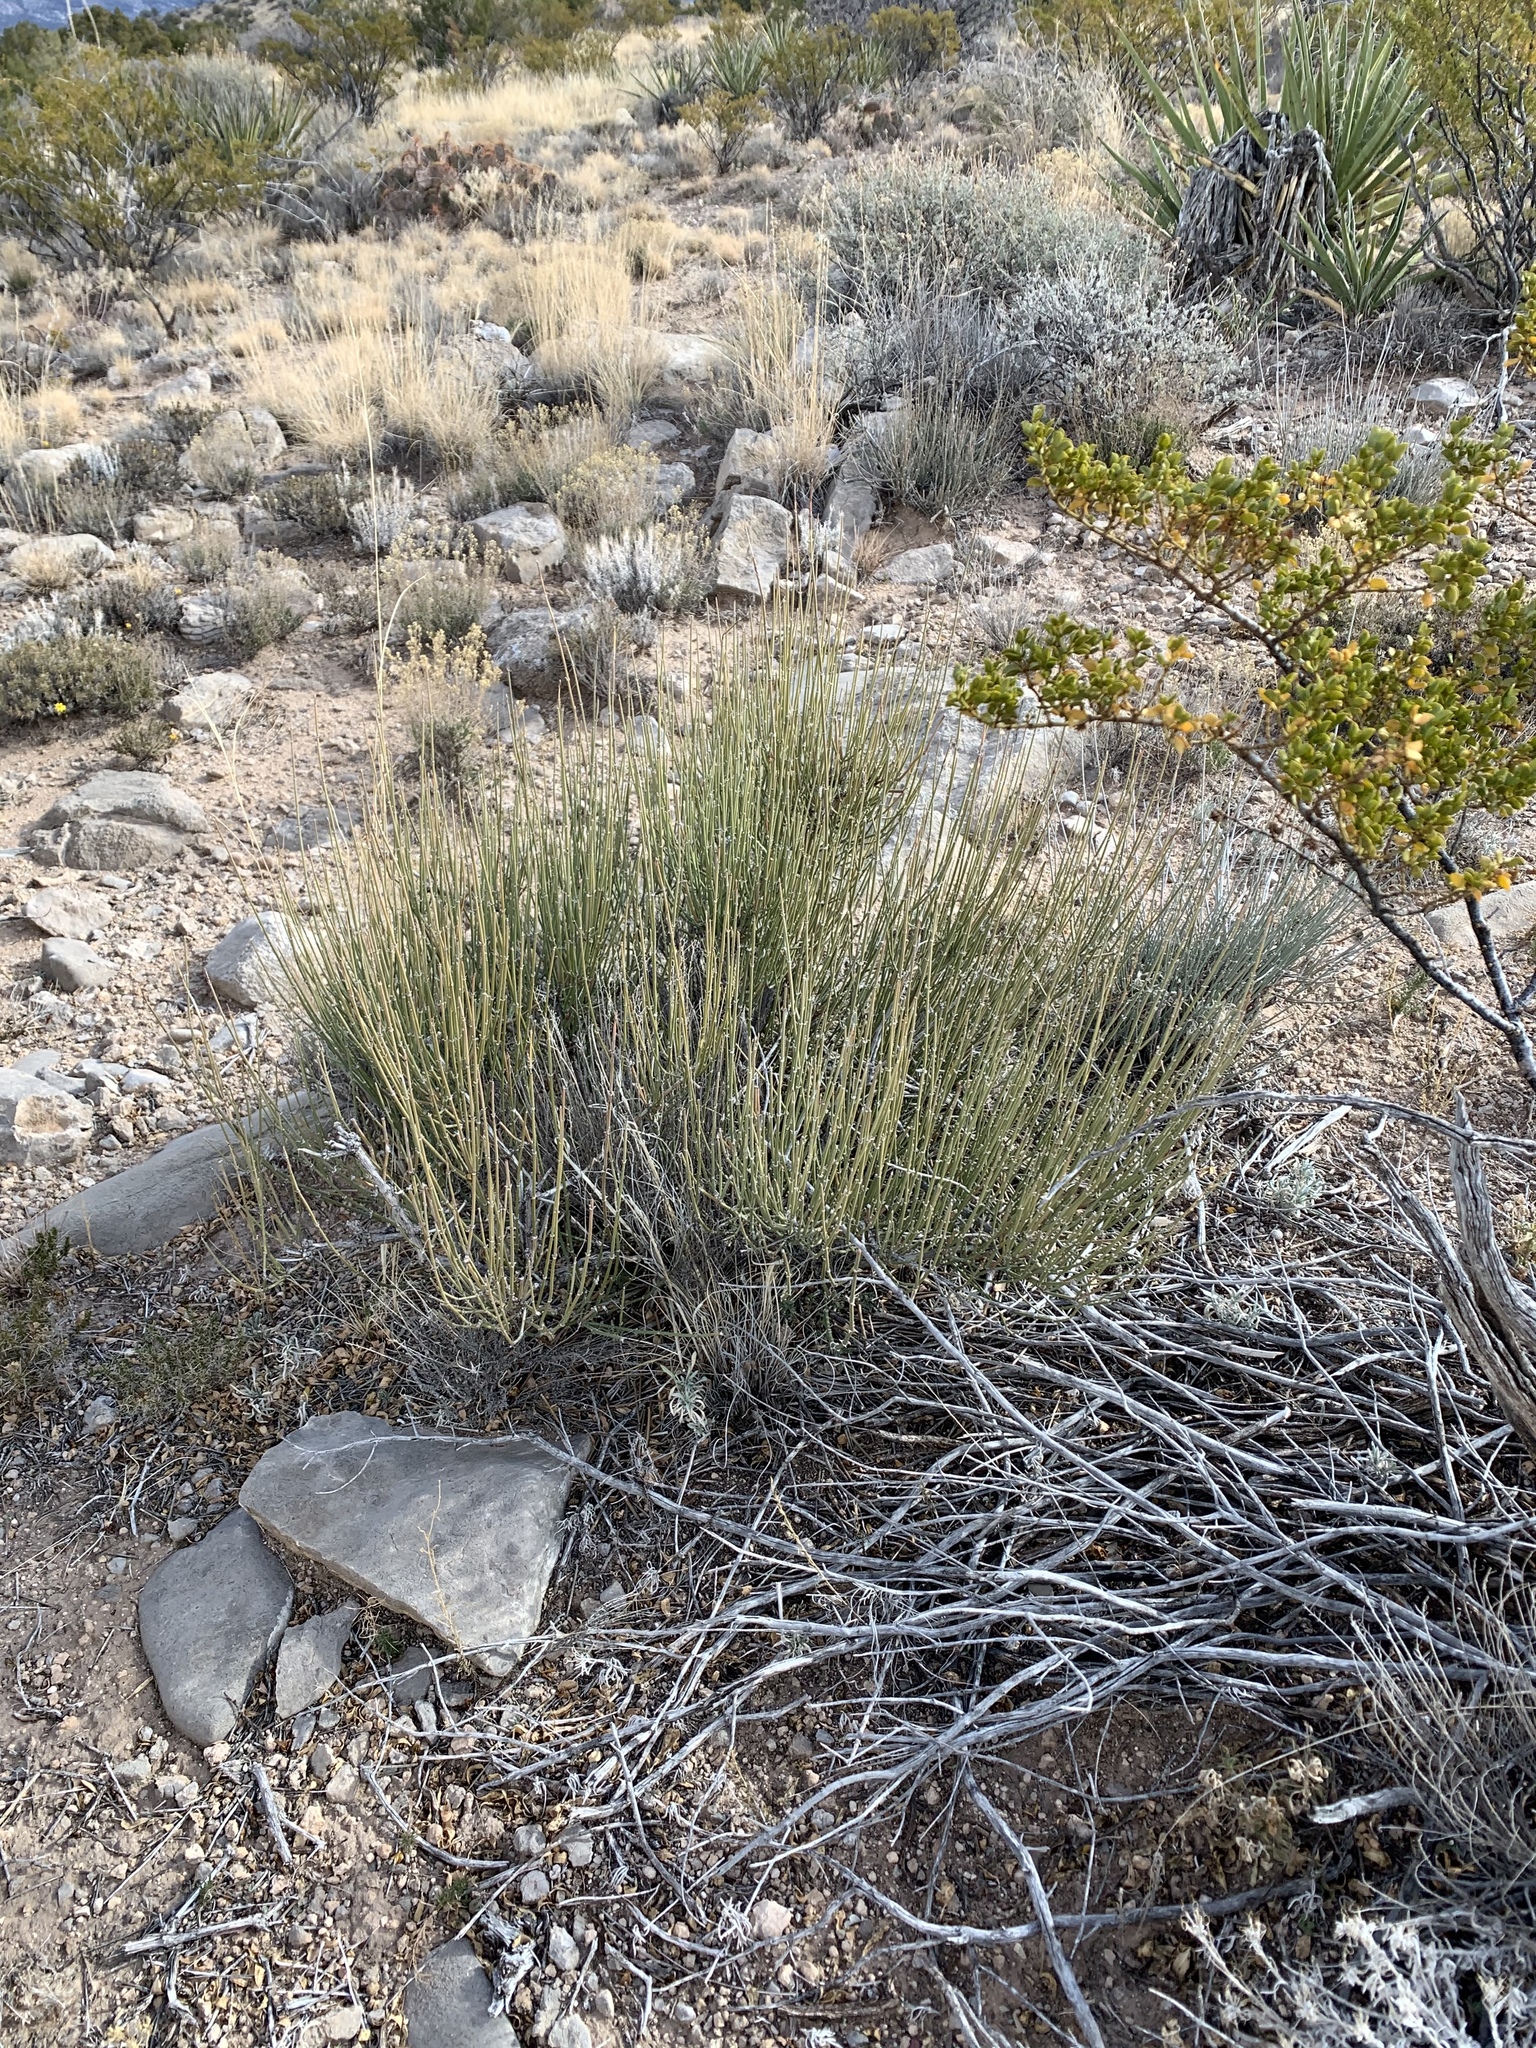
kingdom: Plantae
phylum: Tracheophyta
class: Gnetopsida
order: Ephedrales
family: Ephedraceae
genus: Ephedra
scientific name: Ephedra viridis
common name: Green ephedra
